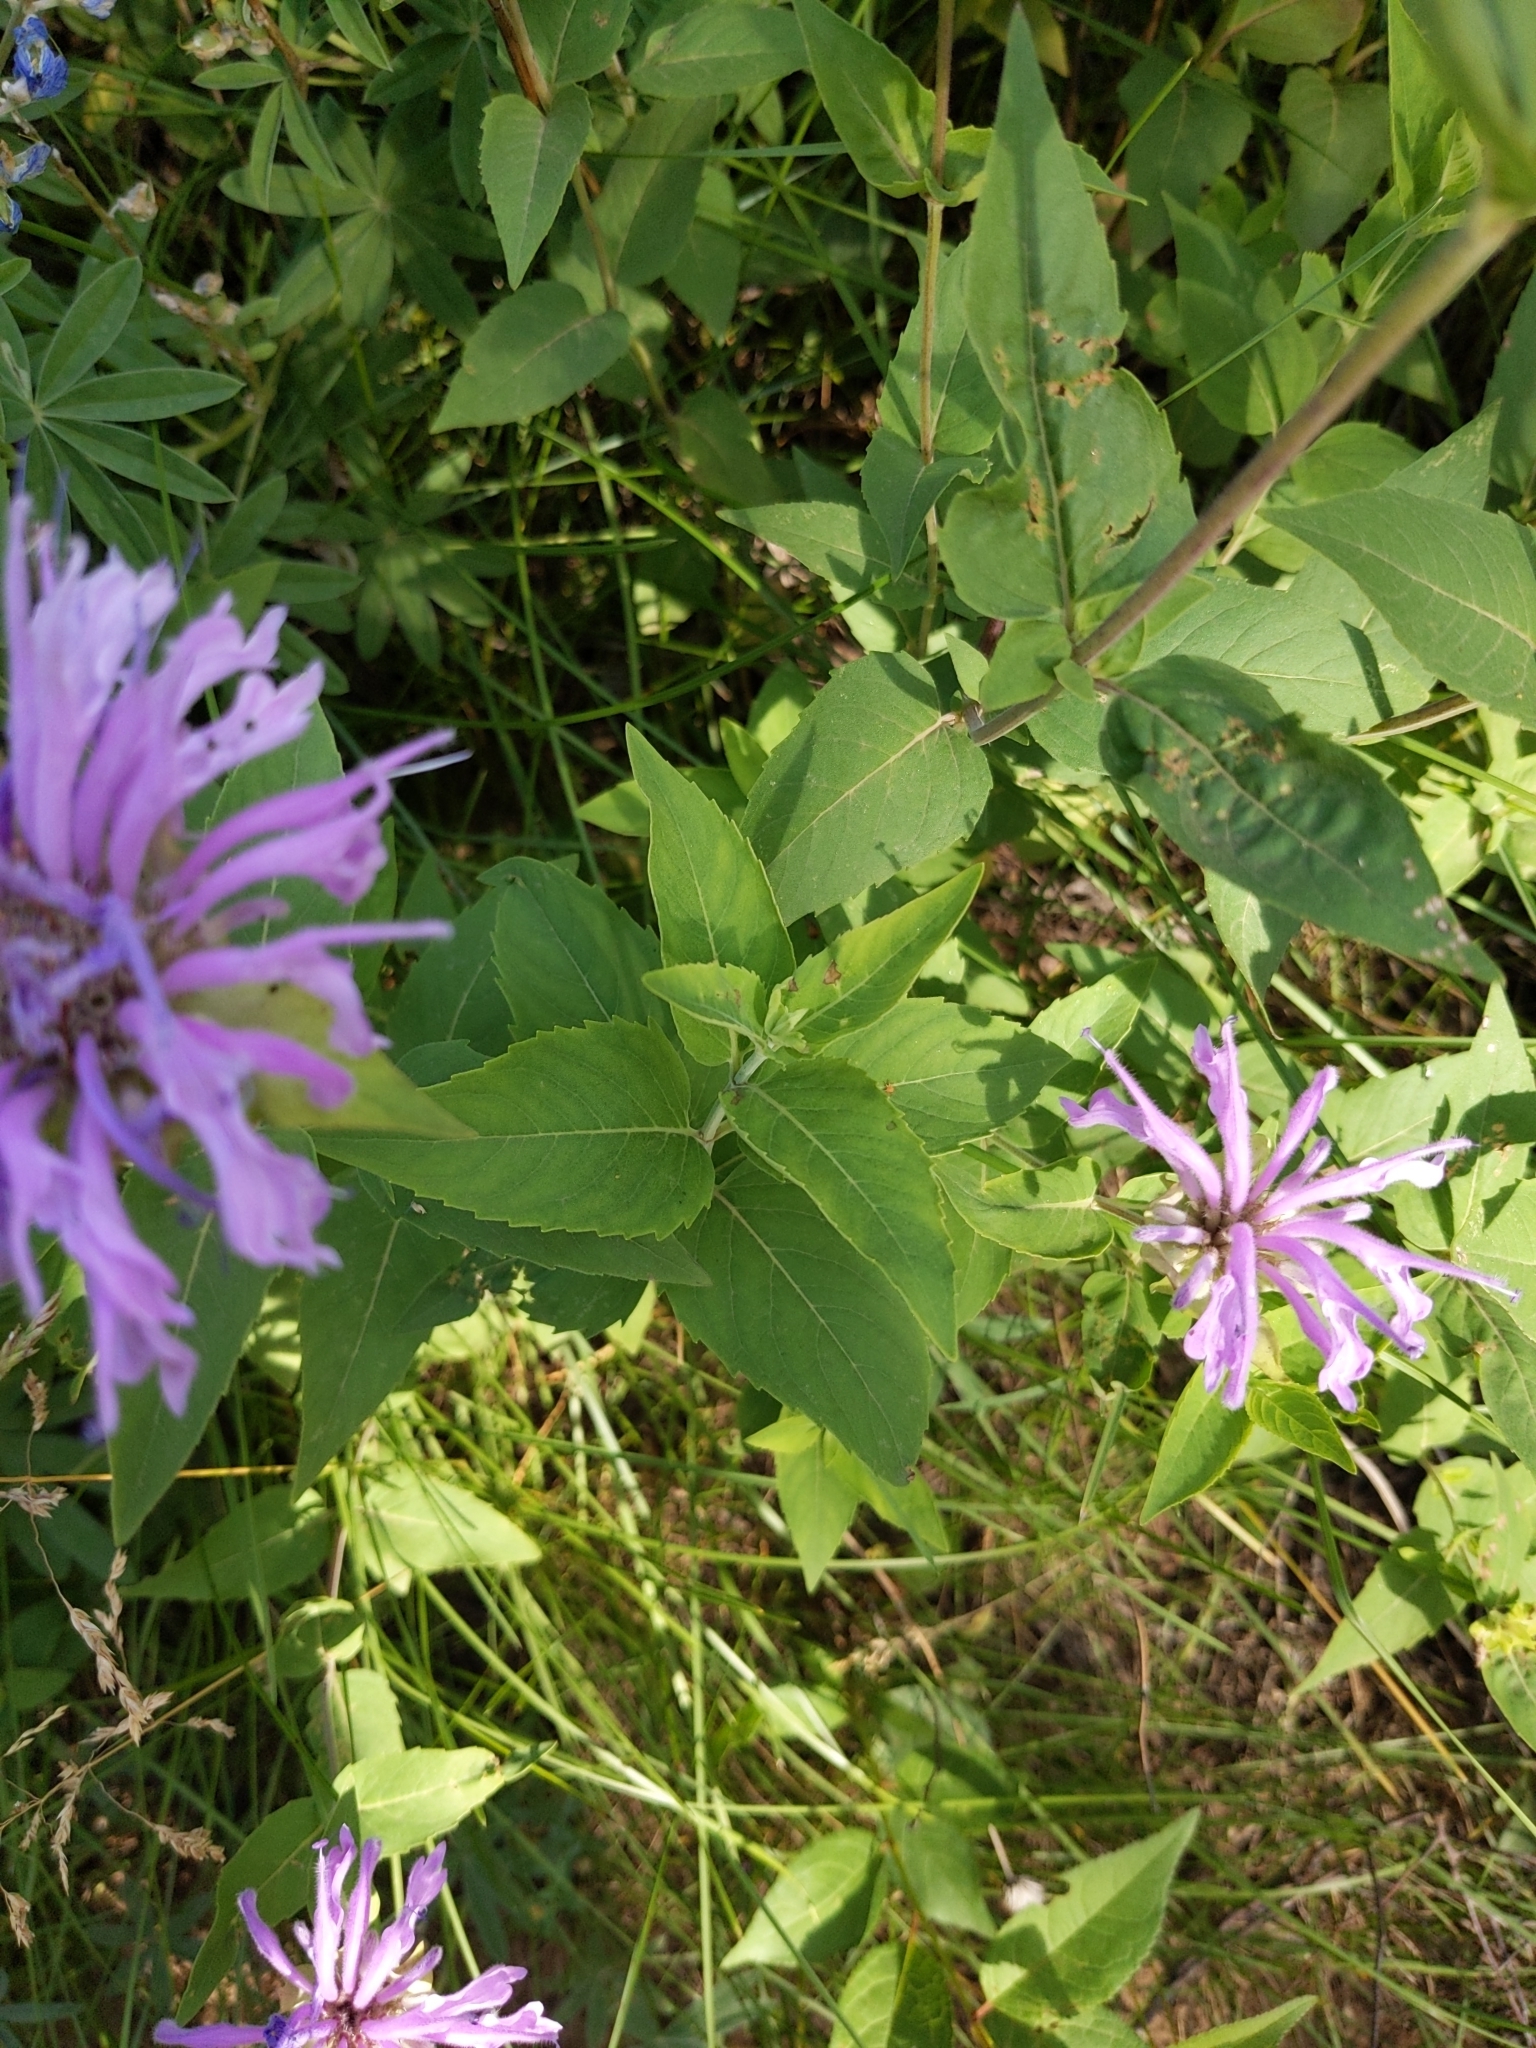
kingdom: Plantae
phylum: Tracheophyta
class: Magnoliopsida
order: Lamiales
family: Lamiaceae
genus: Monarda
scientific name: Monarda fistulosa
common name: Purple beebalm
